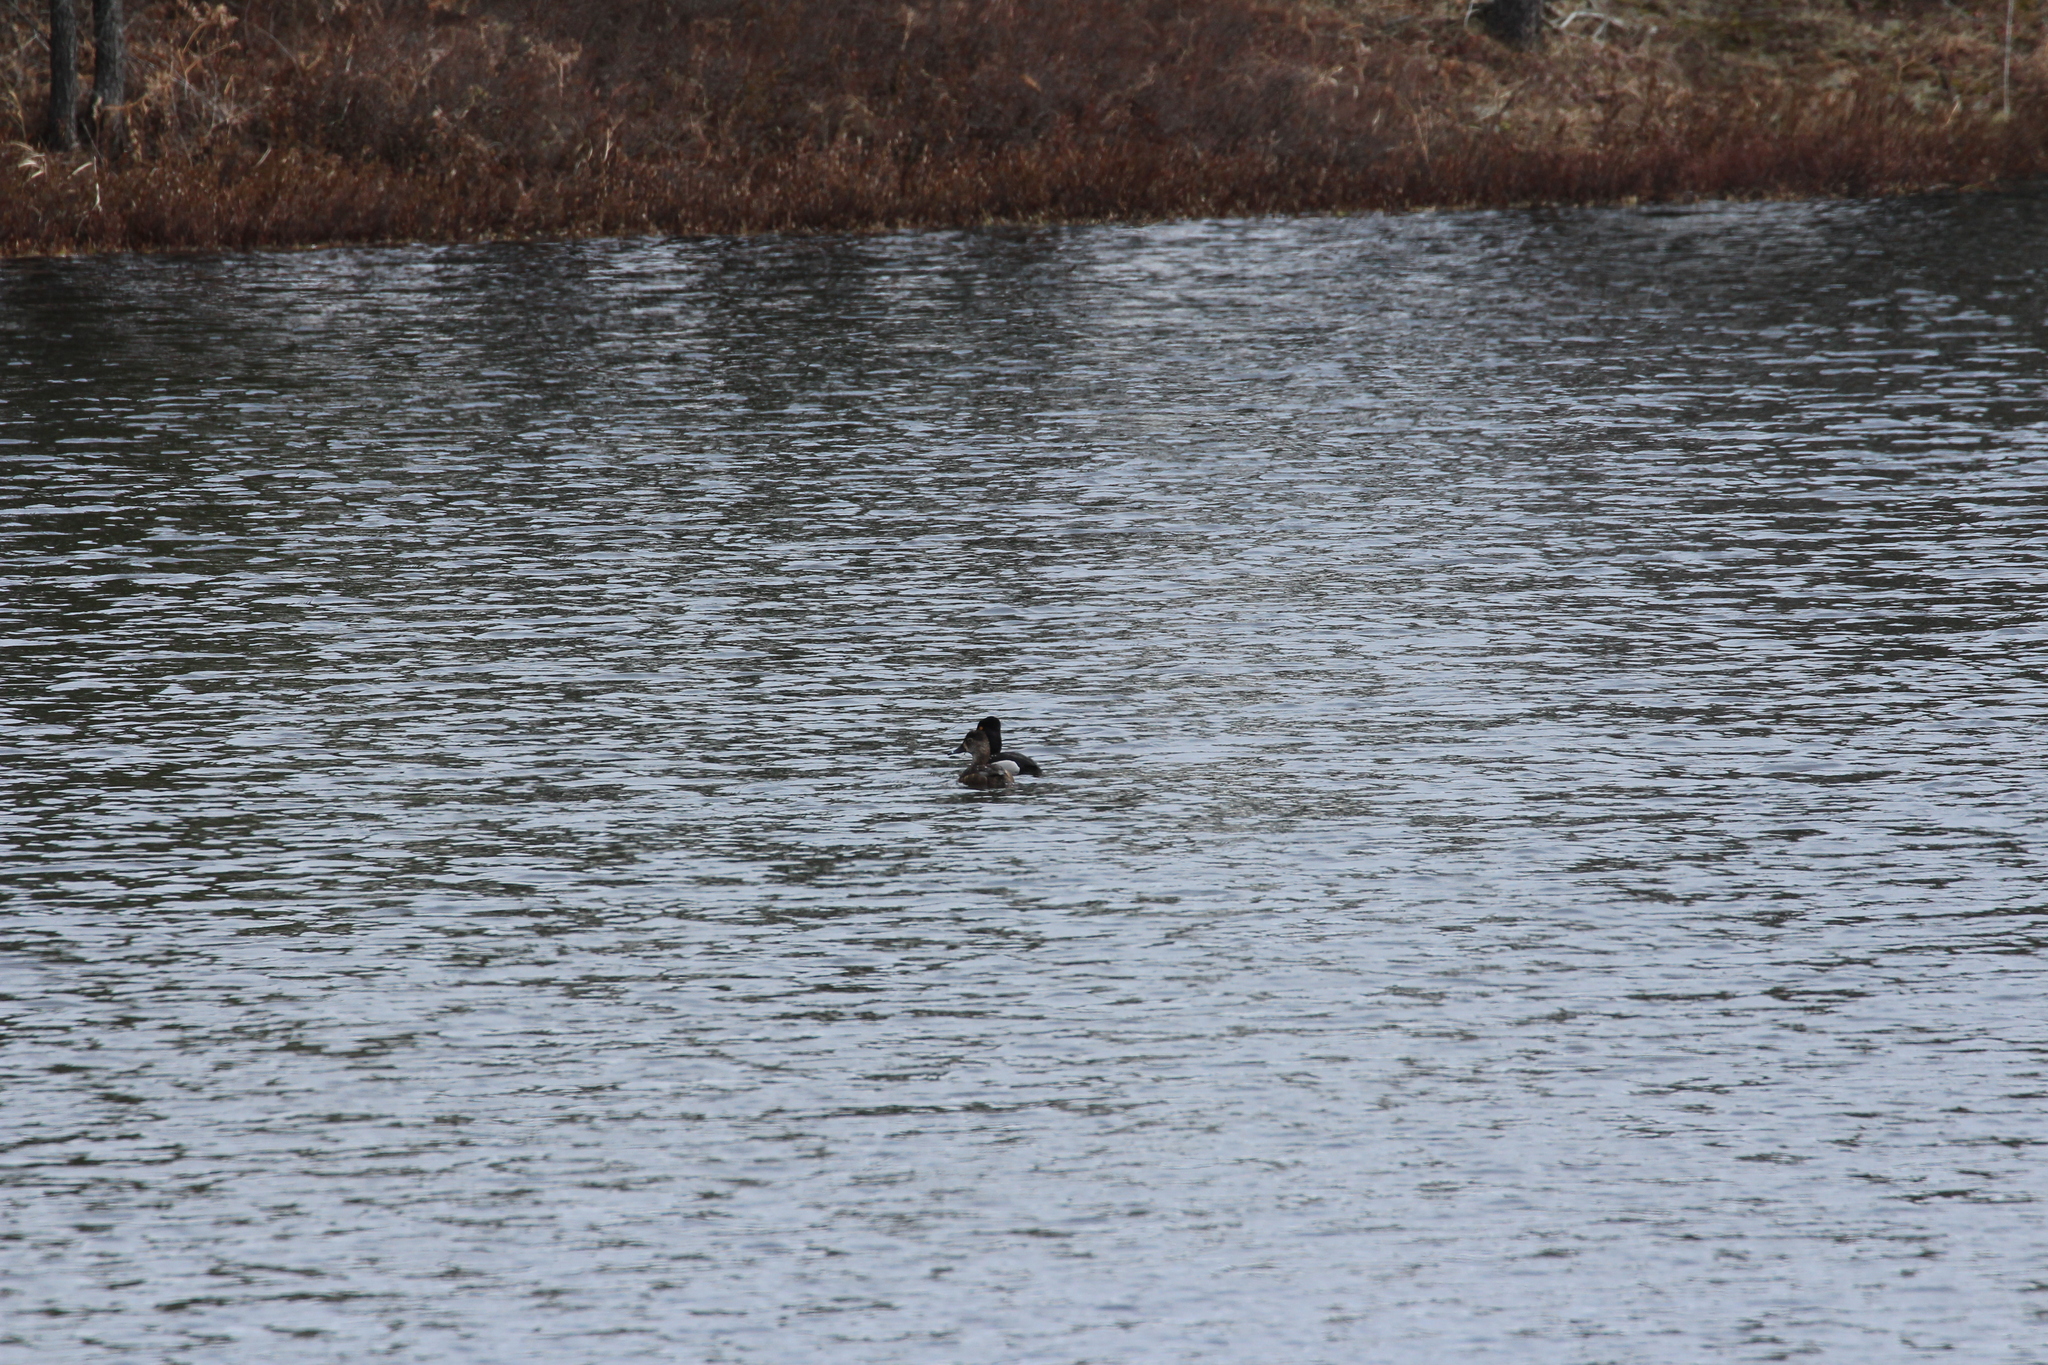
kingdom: Animalia
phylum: Chordata
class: Aves
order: Anseriformes
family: Anatidae
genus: Aythya
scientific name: Aythya collaris
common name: Ring-necked duck
